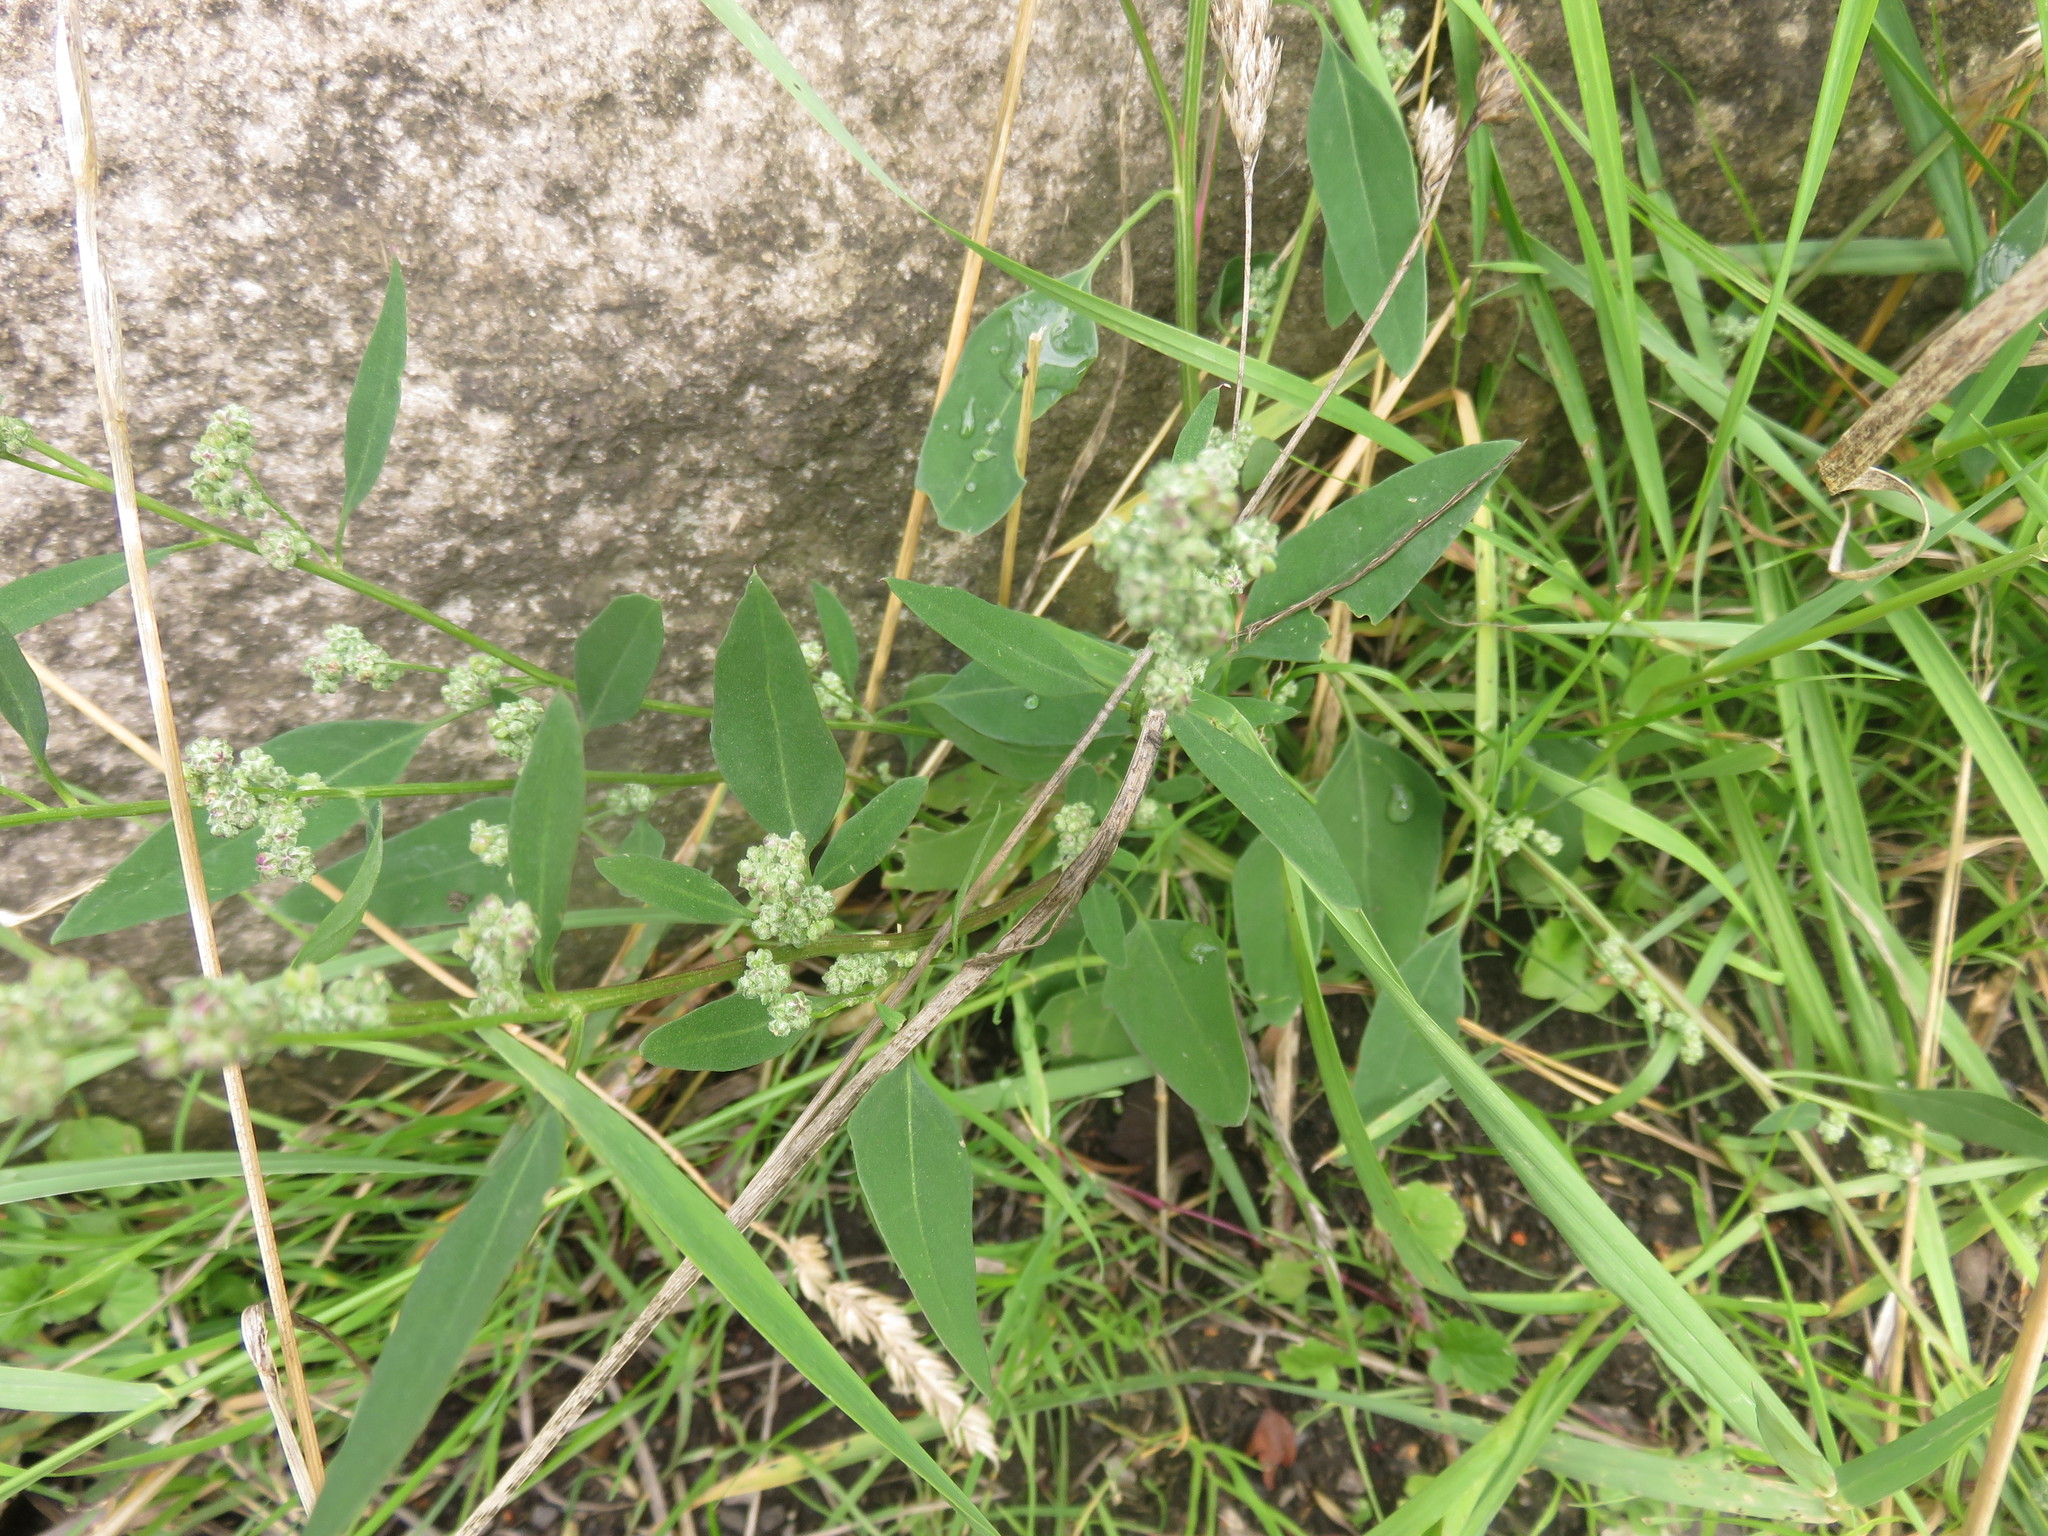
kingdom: Plantae
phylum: Tracheophyta
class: Magnoliopsida
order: Caryophyllales
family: Amaranthaceae
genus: Chenopodium
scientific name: Chenopodium album
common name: Fat-hen
